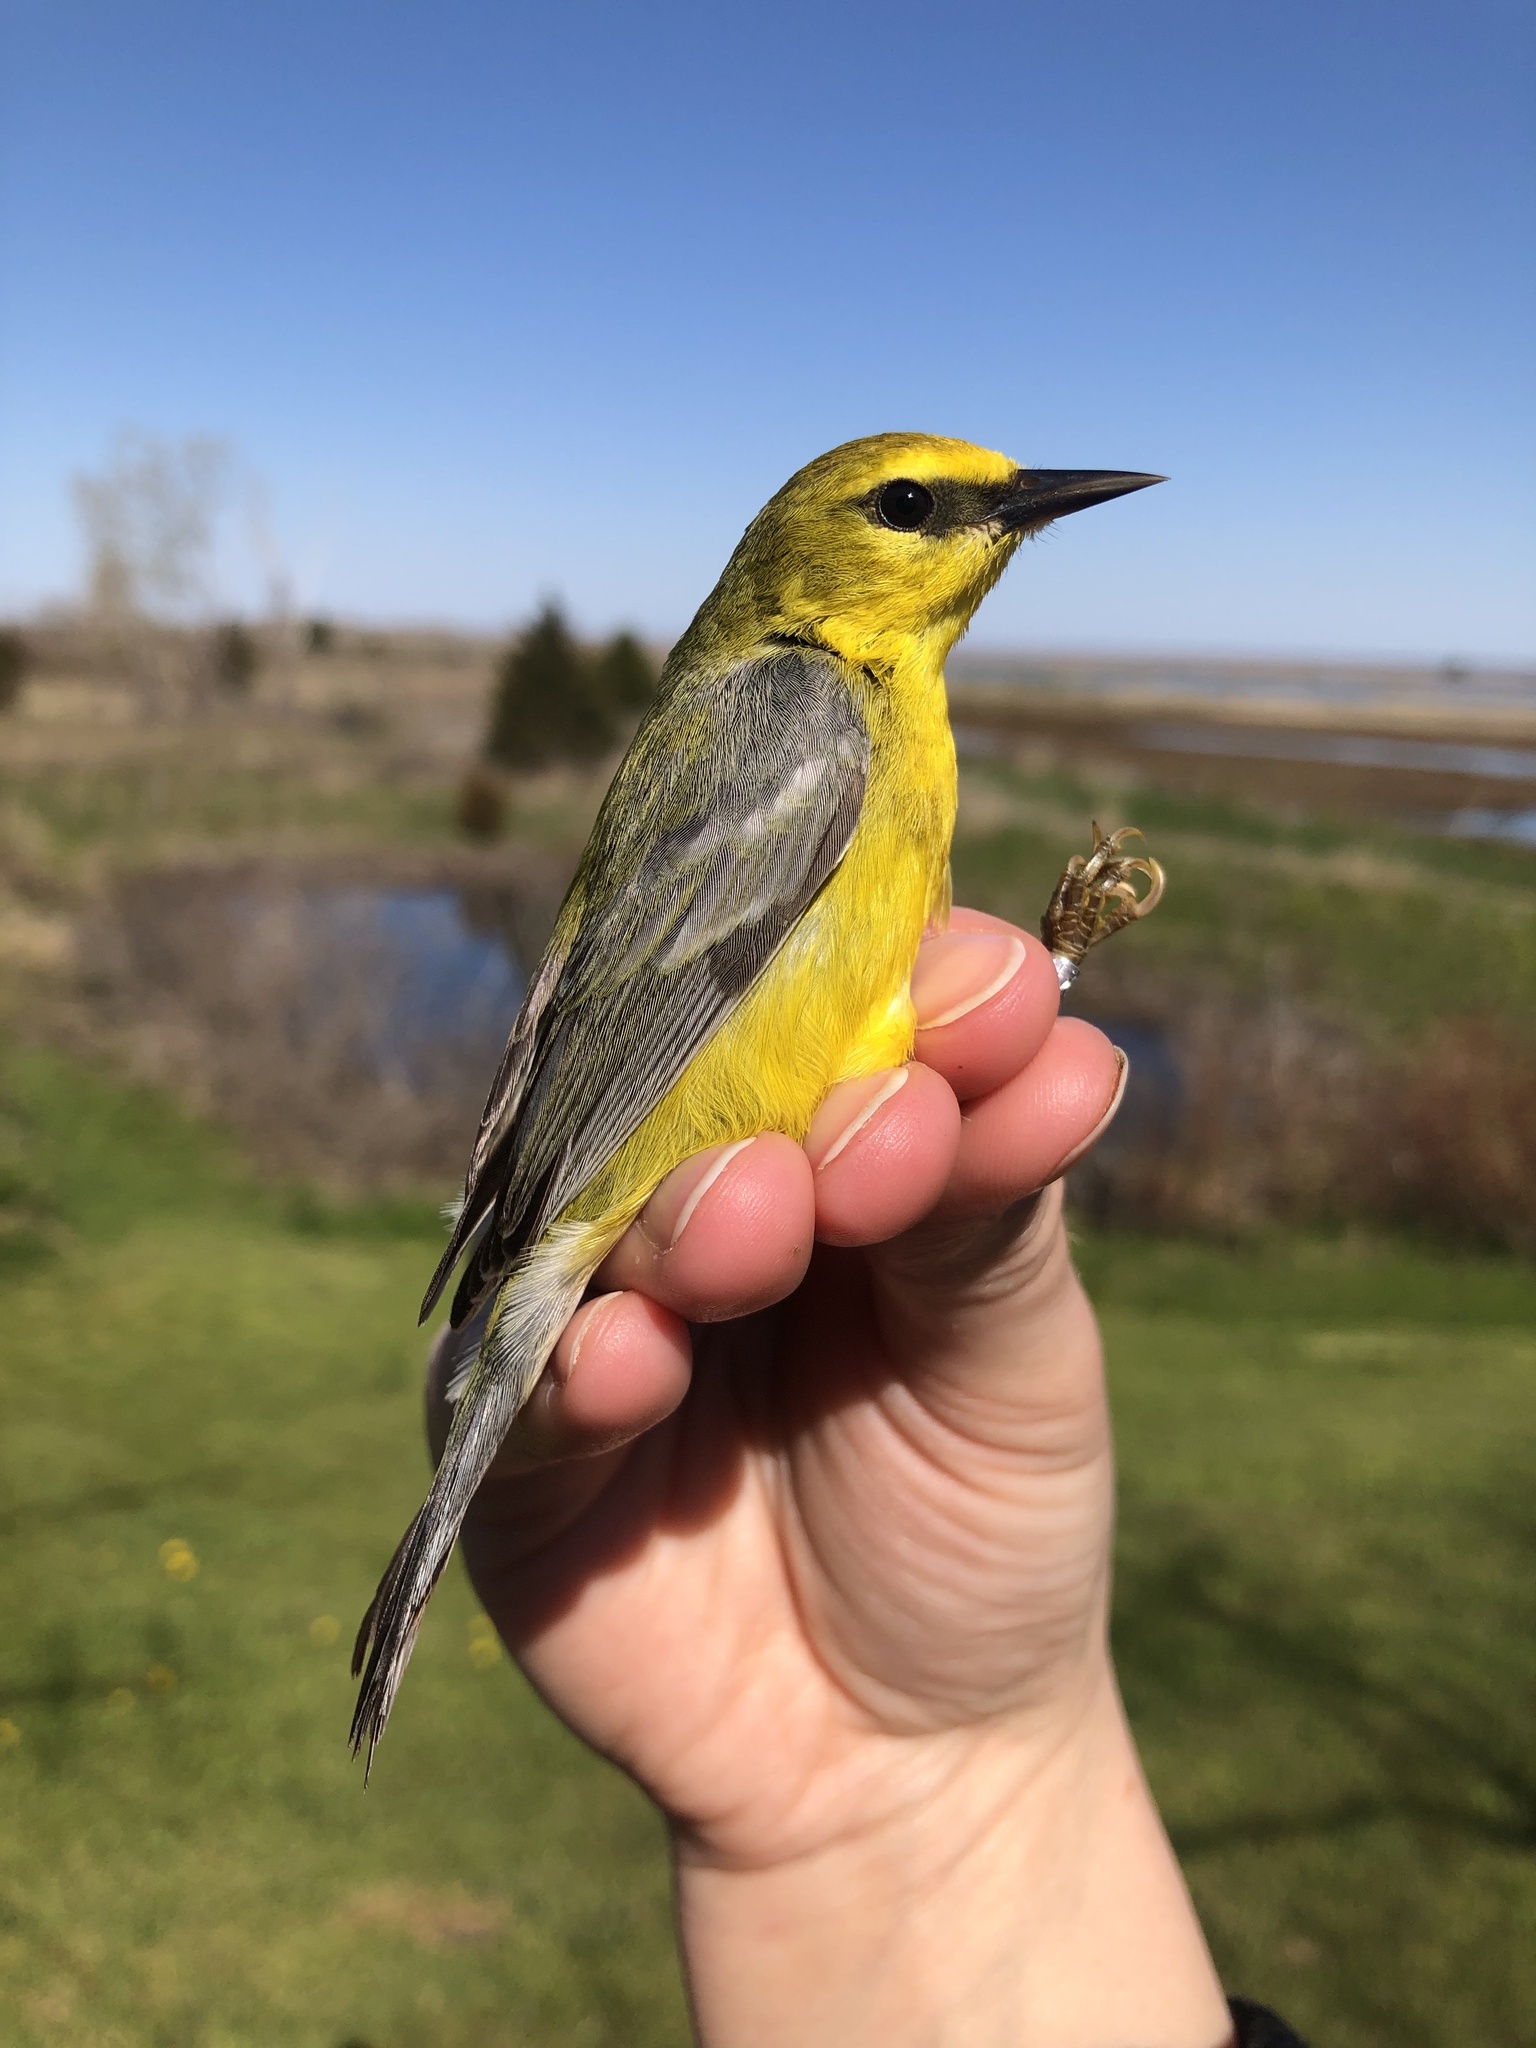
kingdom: Animalia
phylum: Chordata
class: Aves
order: Passeriformes
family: Parulidae
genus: Vermivora
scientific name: Vermivora cyanoptera
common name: Blue-winged warbler
